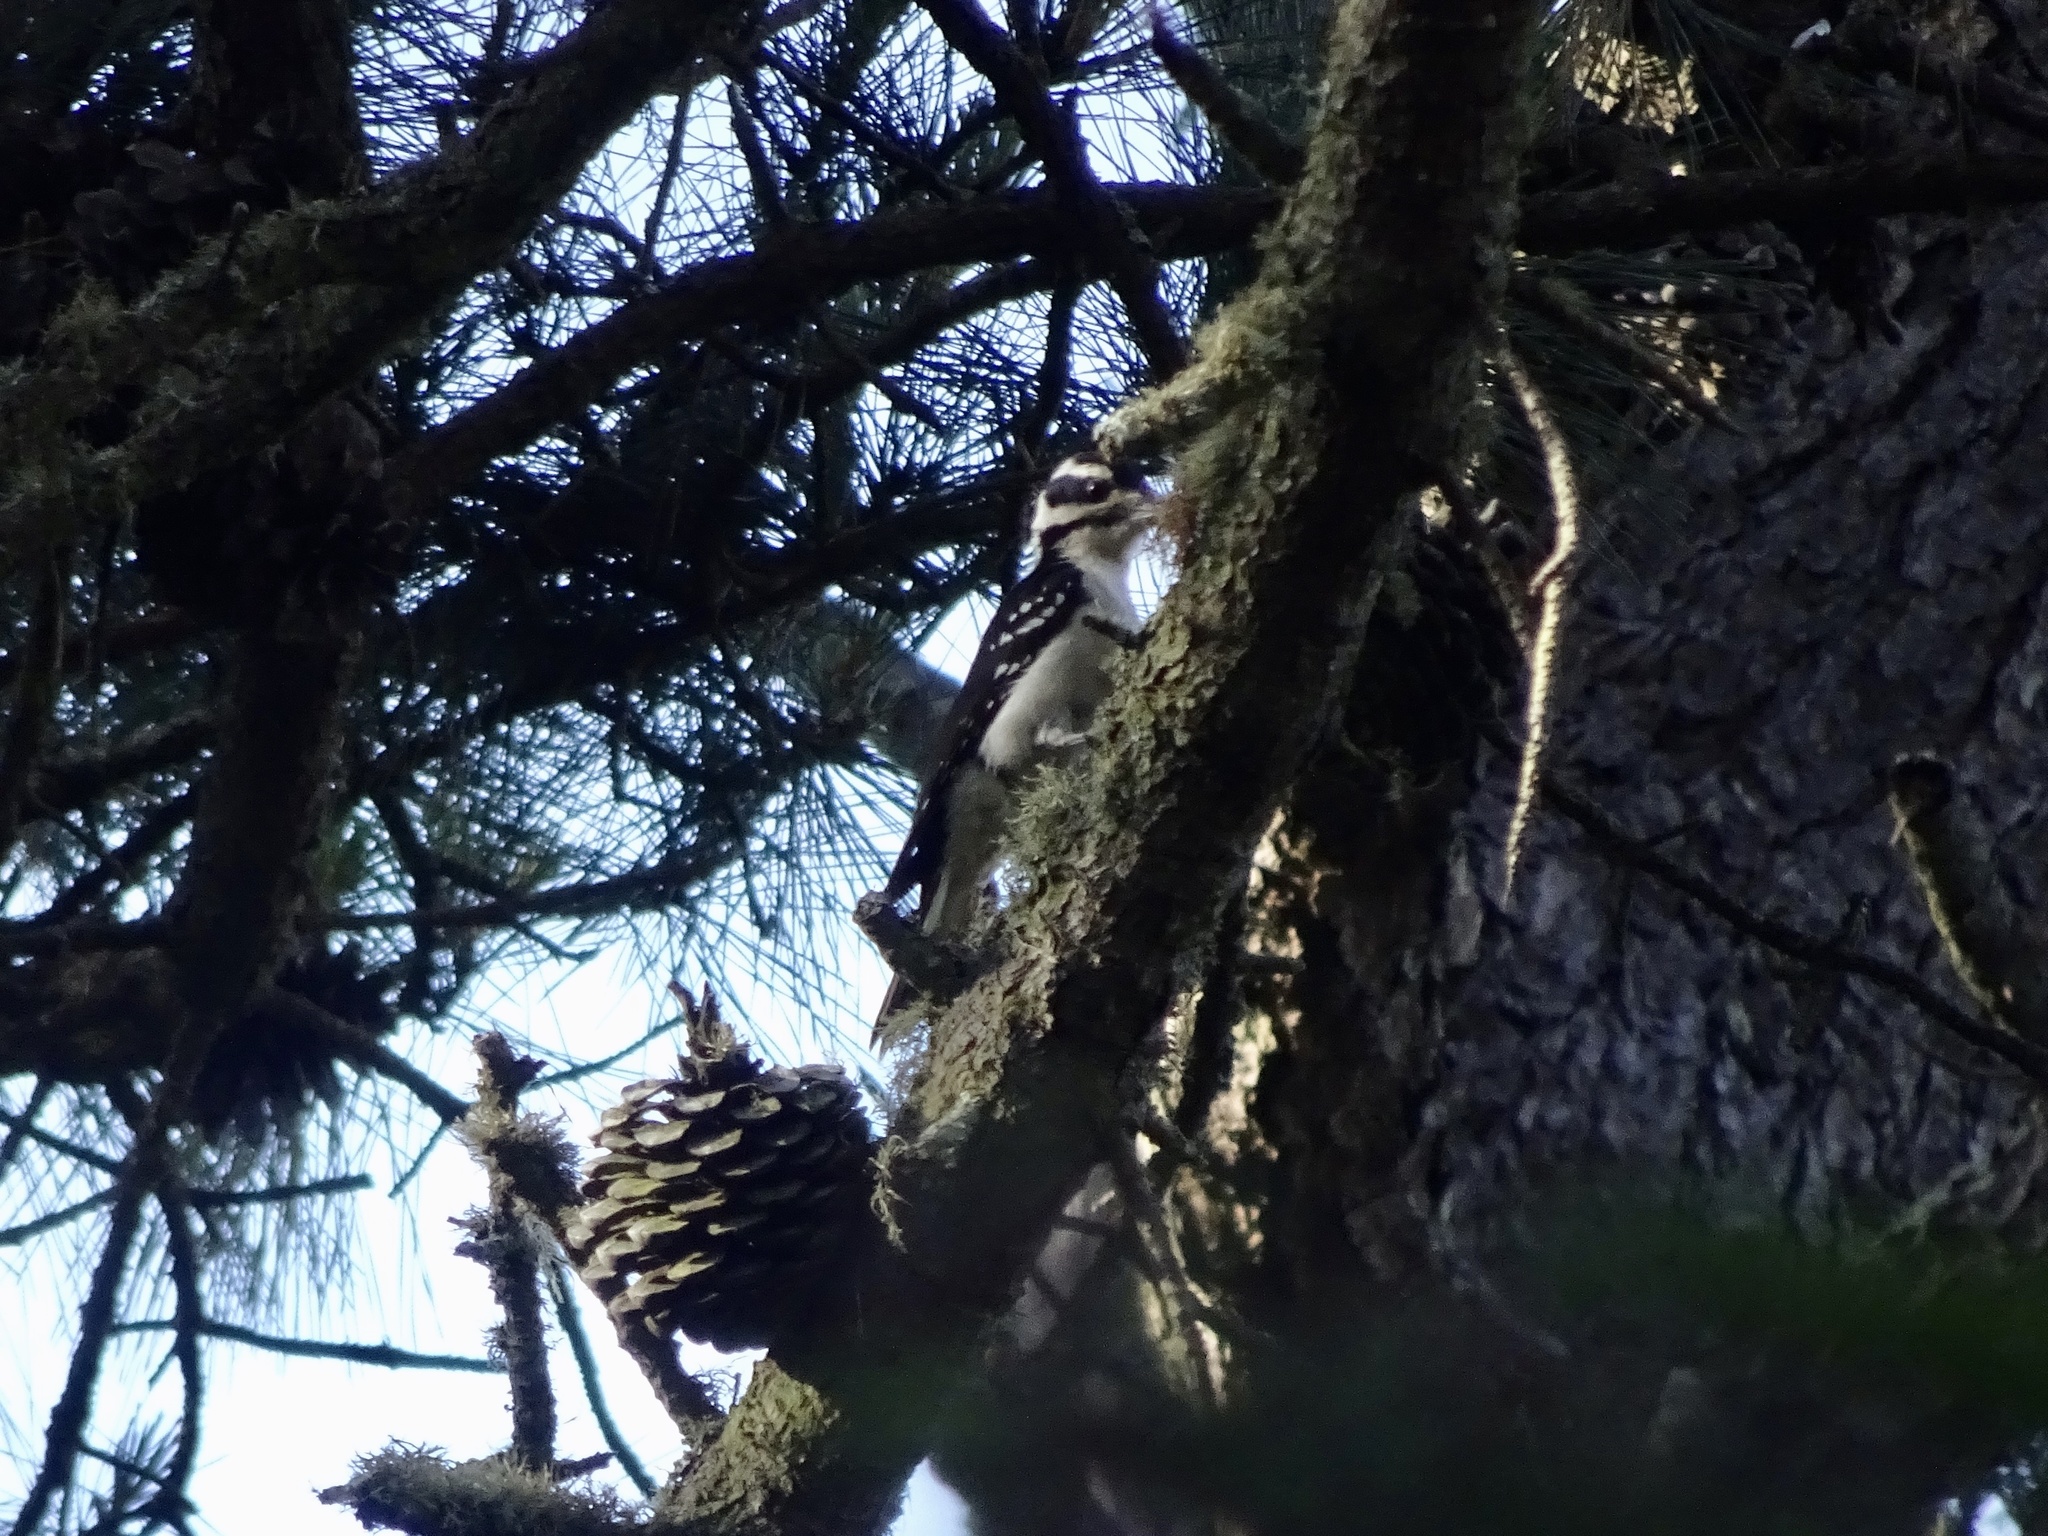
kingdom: Animalia
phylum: Chordata
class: Aves
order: Piciformes
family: Picidae
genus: Leuconotopicus
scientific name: Leuconotopicus villosus
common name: Hairy woodpecker
